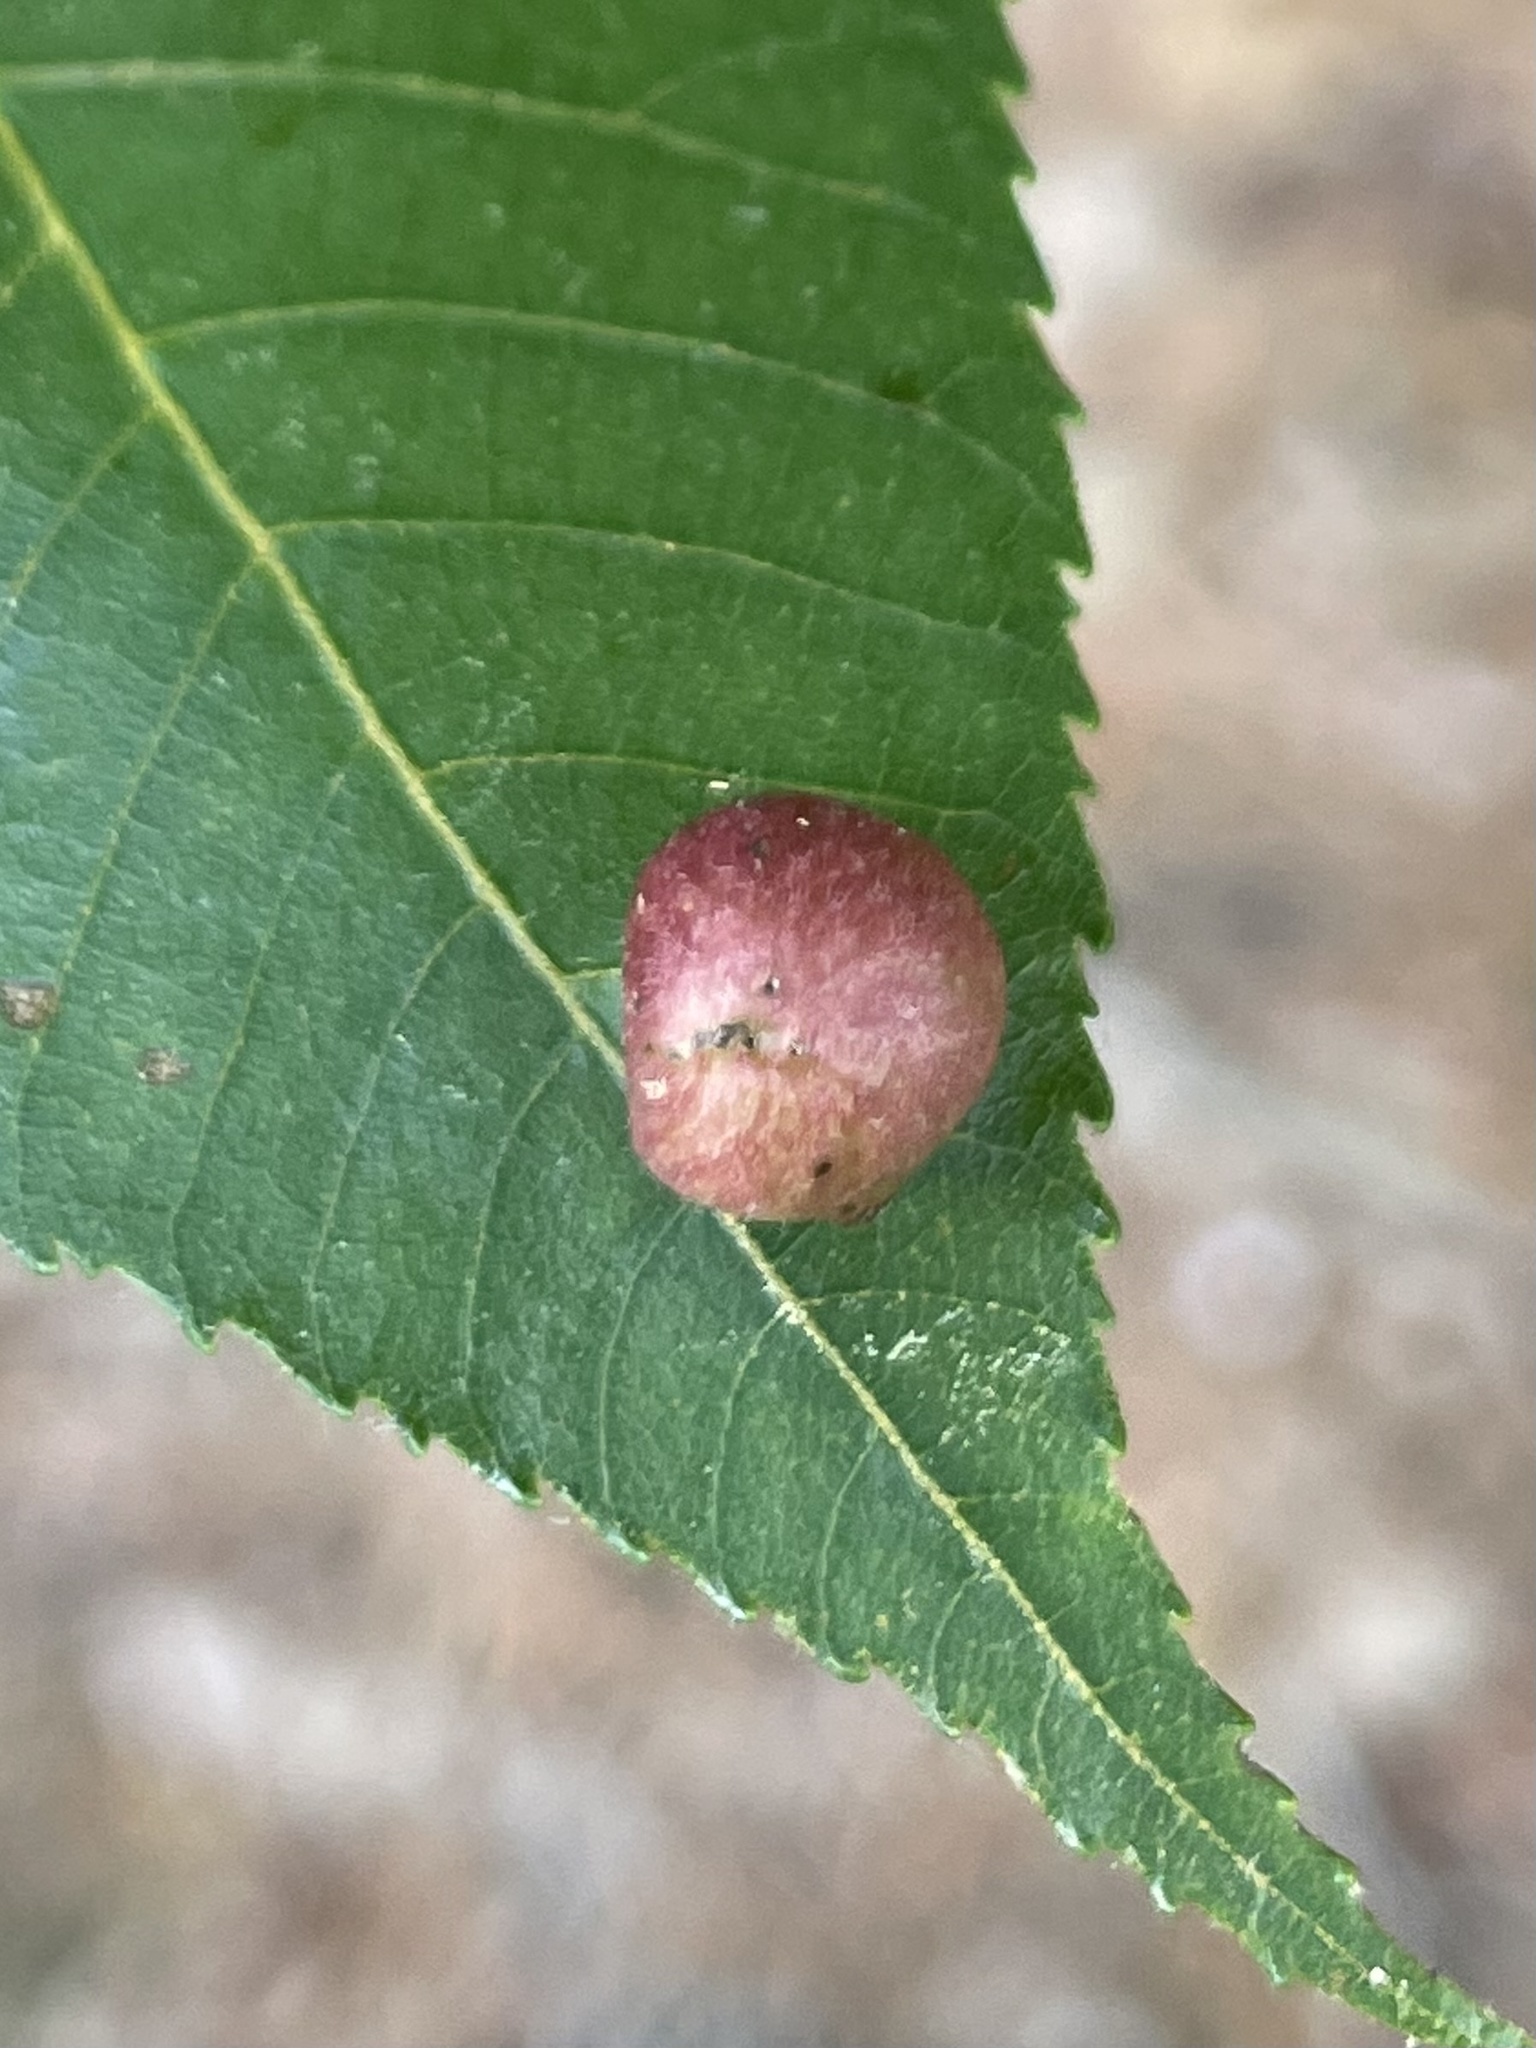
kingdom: Animalia
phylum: Arthropoda
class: Insecta
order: Hemiptera
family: Phylloxeridae
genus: Daktulosphaira
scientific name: Daktulosphaira conicum
